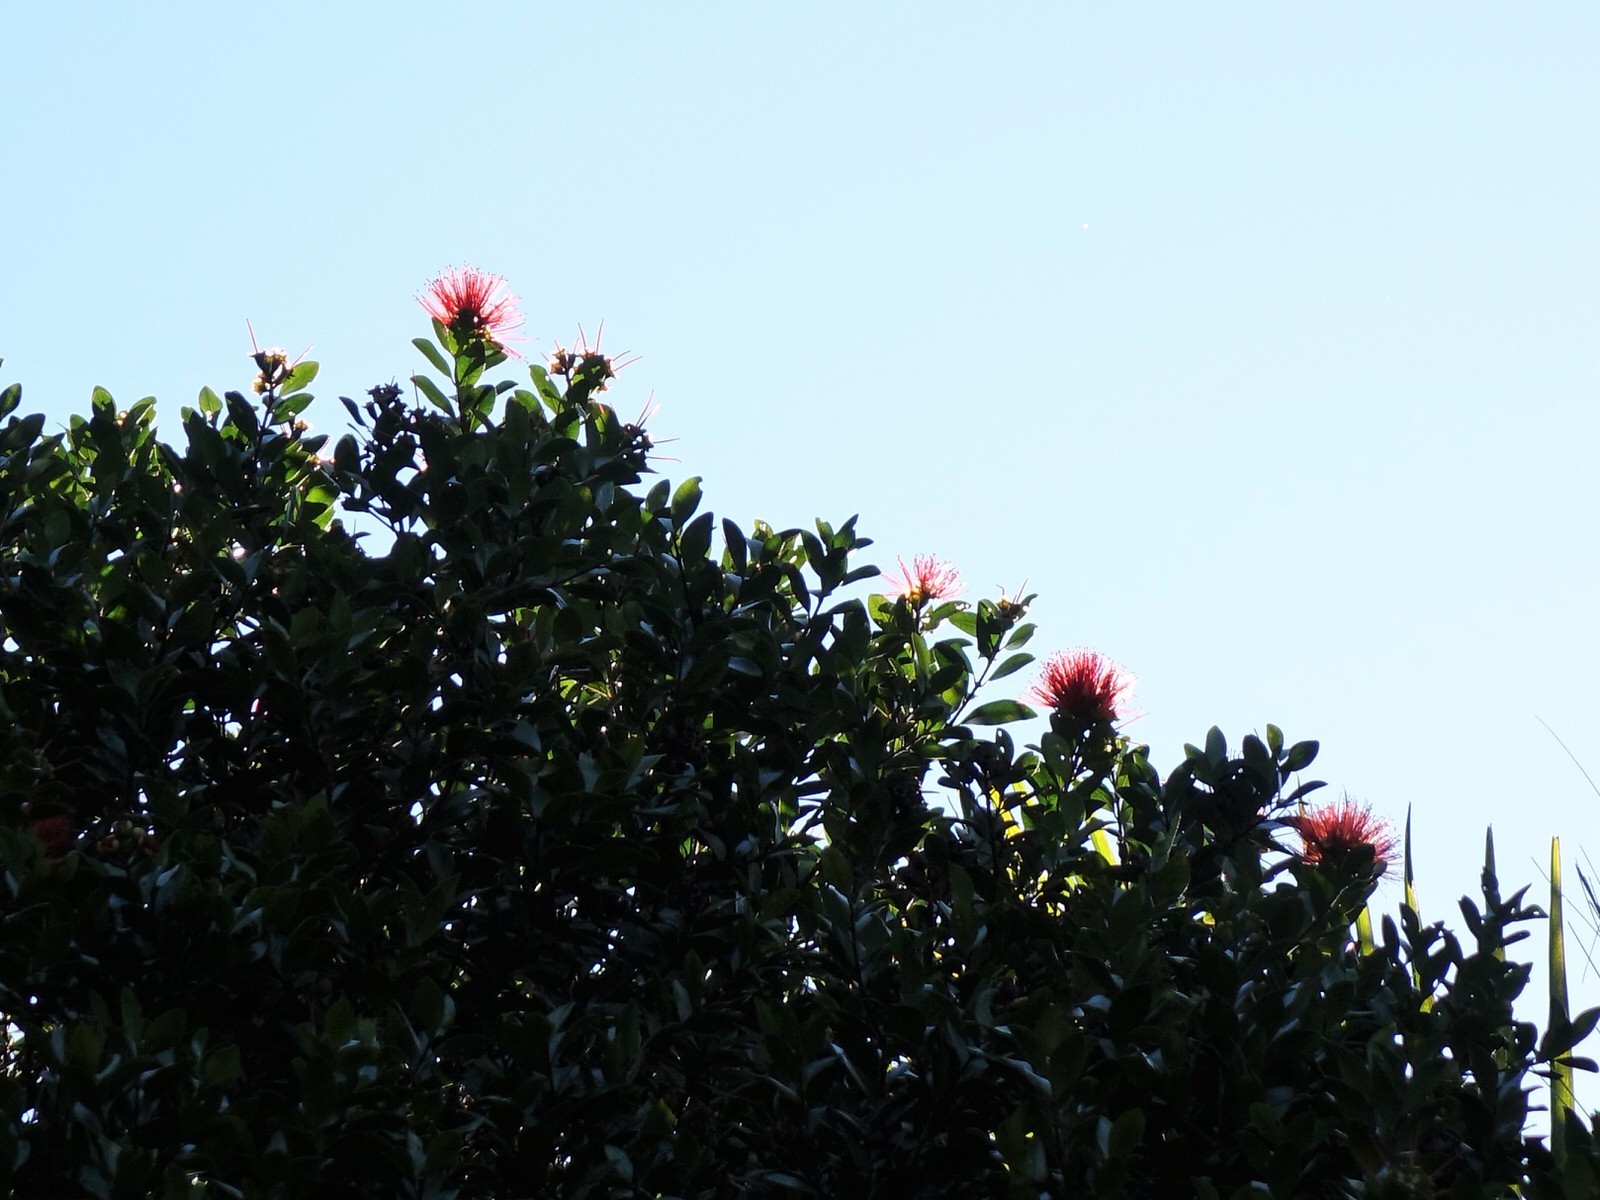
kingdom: Plantae
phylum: Tracheophyta
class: Magnoliopsida
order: Myrtales
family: Myrtaceae
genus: Metrosideros
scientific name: Metrosideros fulgens
